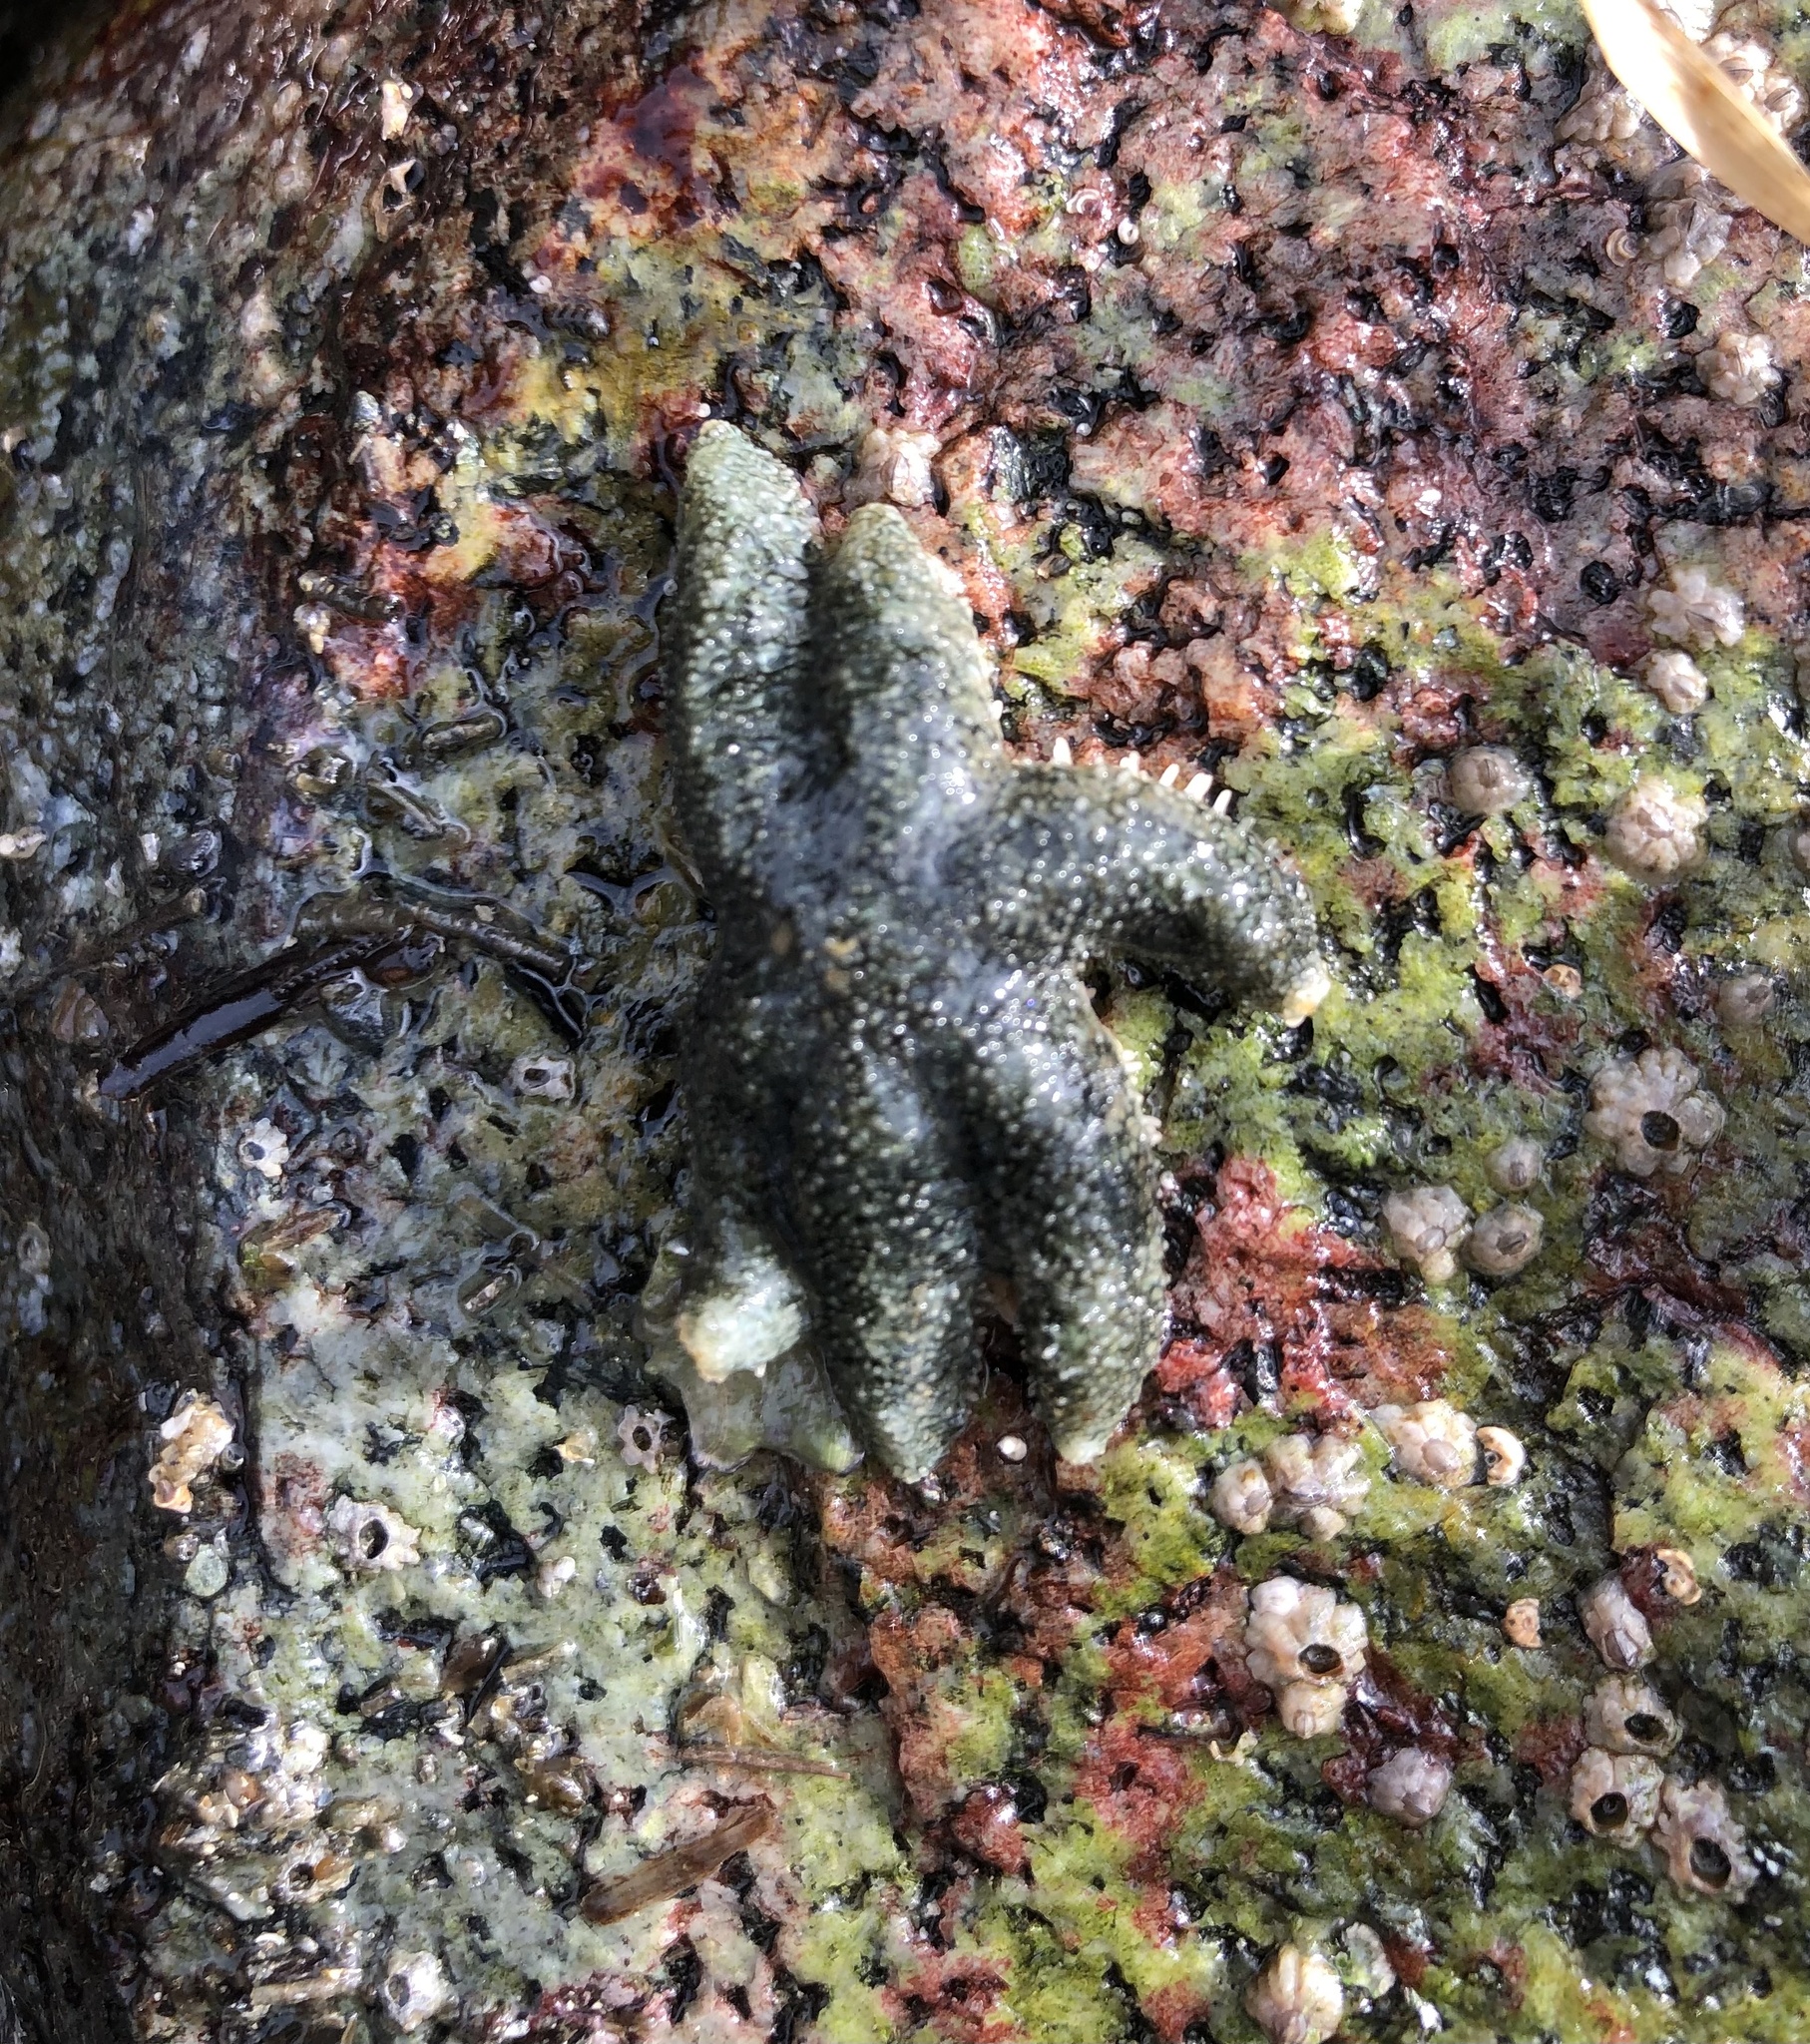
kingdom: Animalia
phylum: Echinodermata
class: Asteroidea
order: Forcipulatida
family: Asteriidae
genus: Leptasterias
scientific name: Leptasterias hexactis
